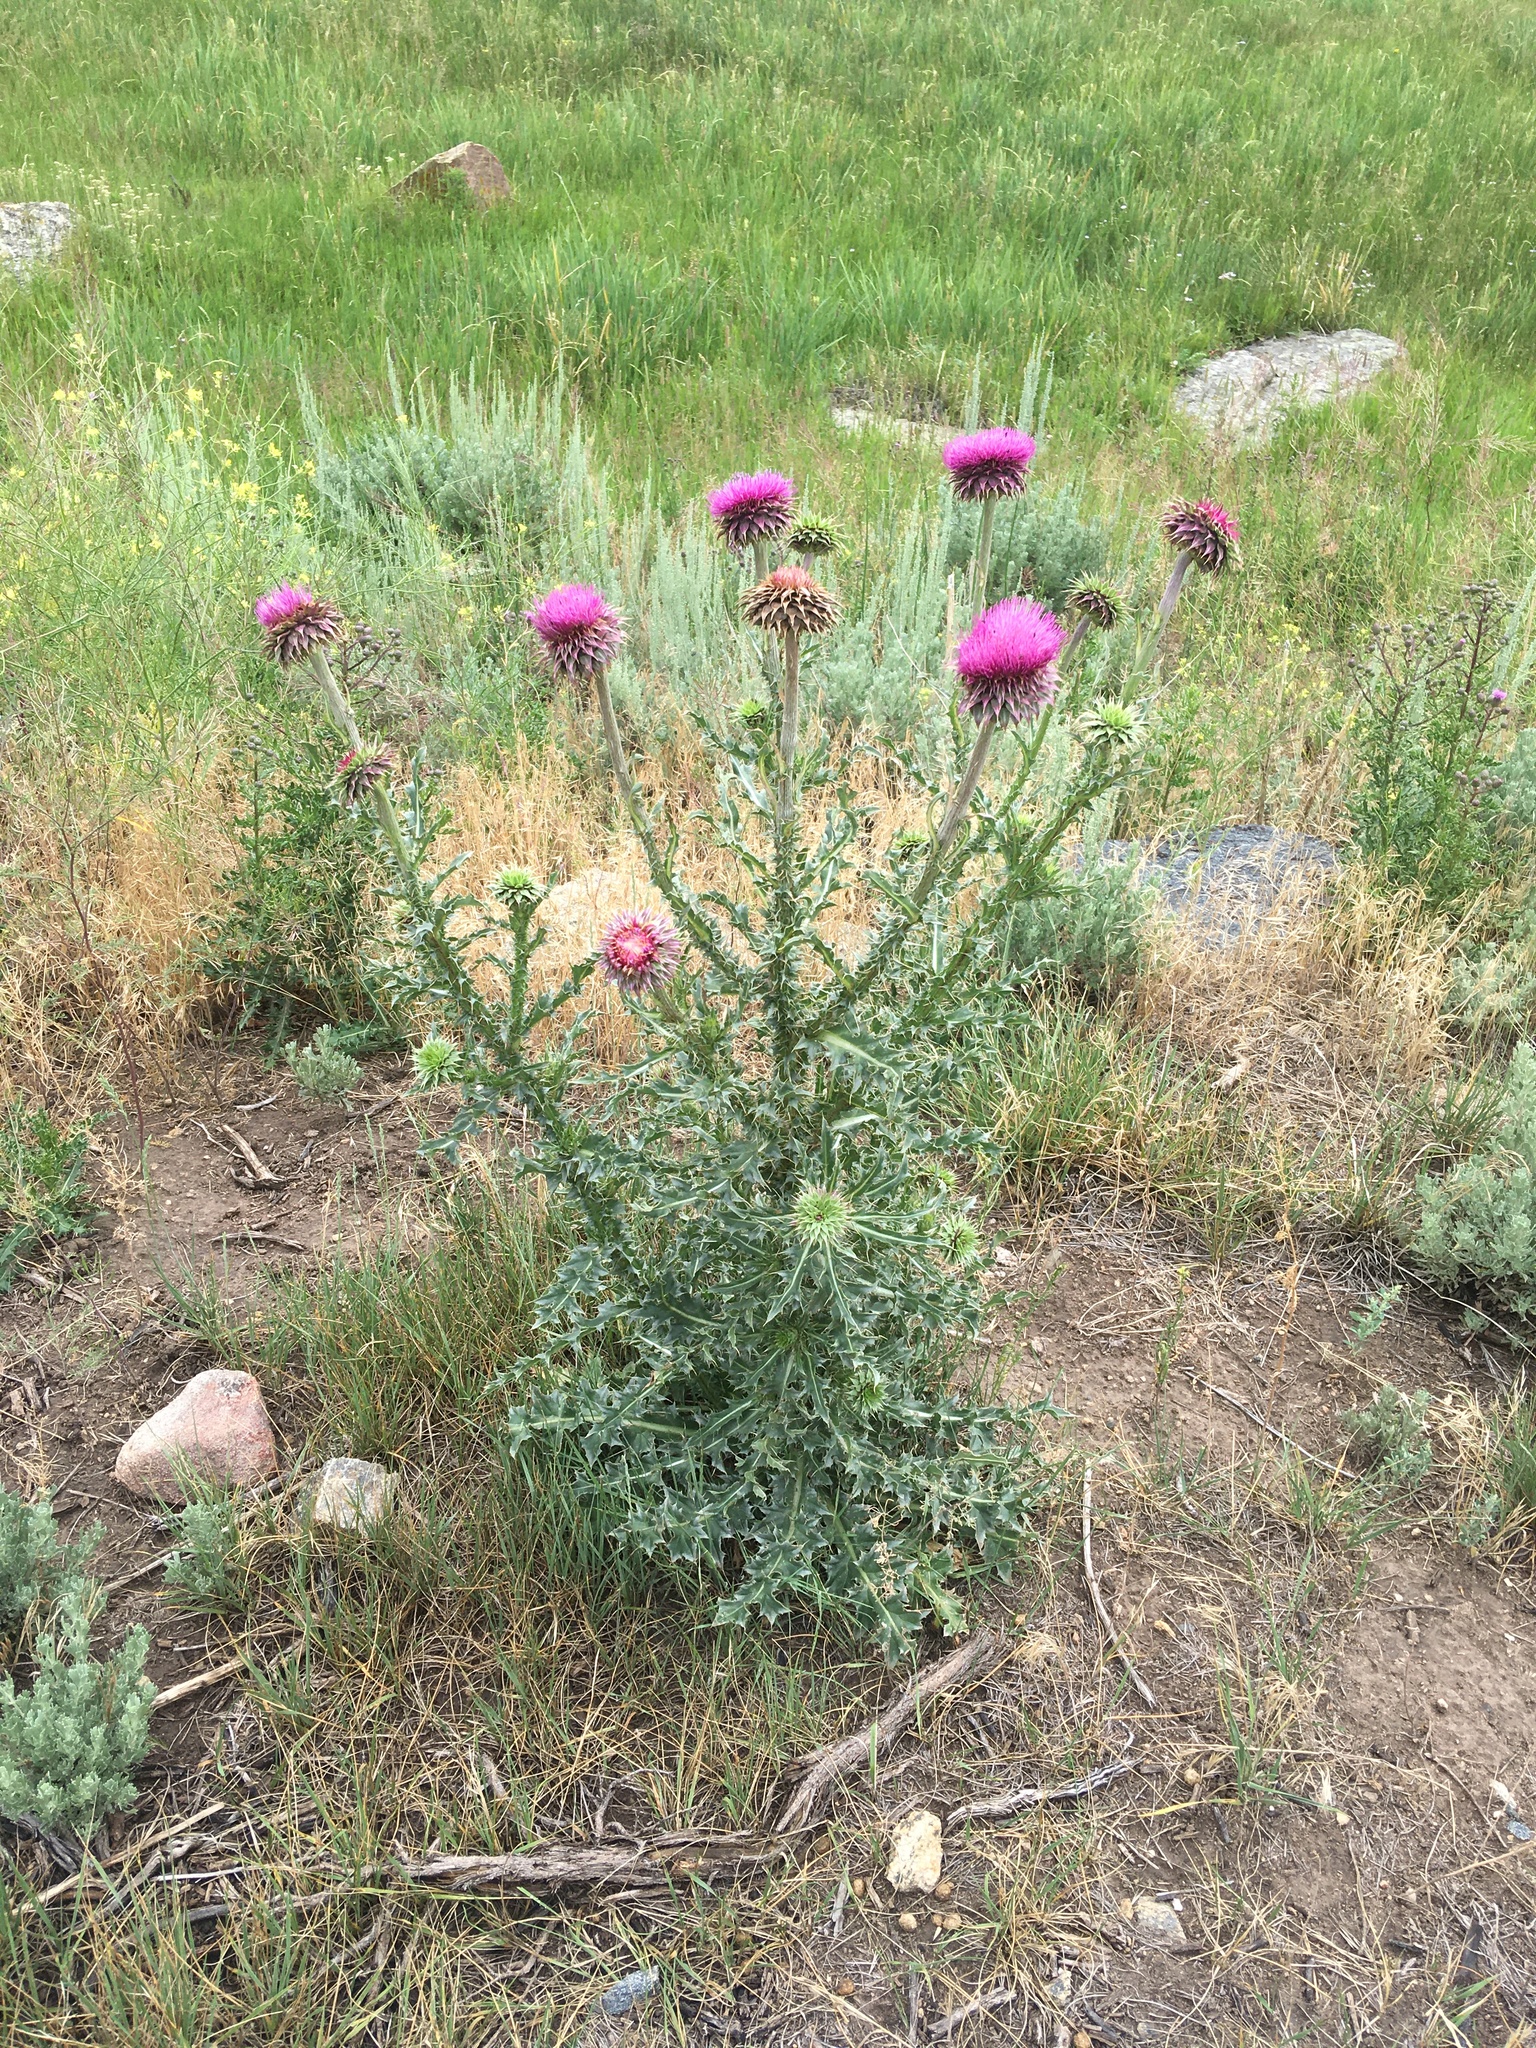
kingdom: Plantae
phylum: Tracheophyta
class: Magnoliopsida
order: Asterales
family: Asteraceae
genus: Carduus
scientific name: Carduus nutans
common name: Musk thistle
